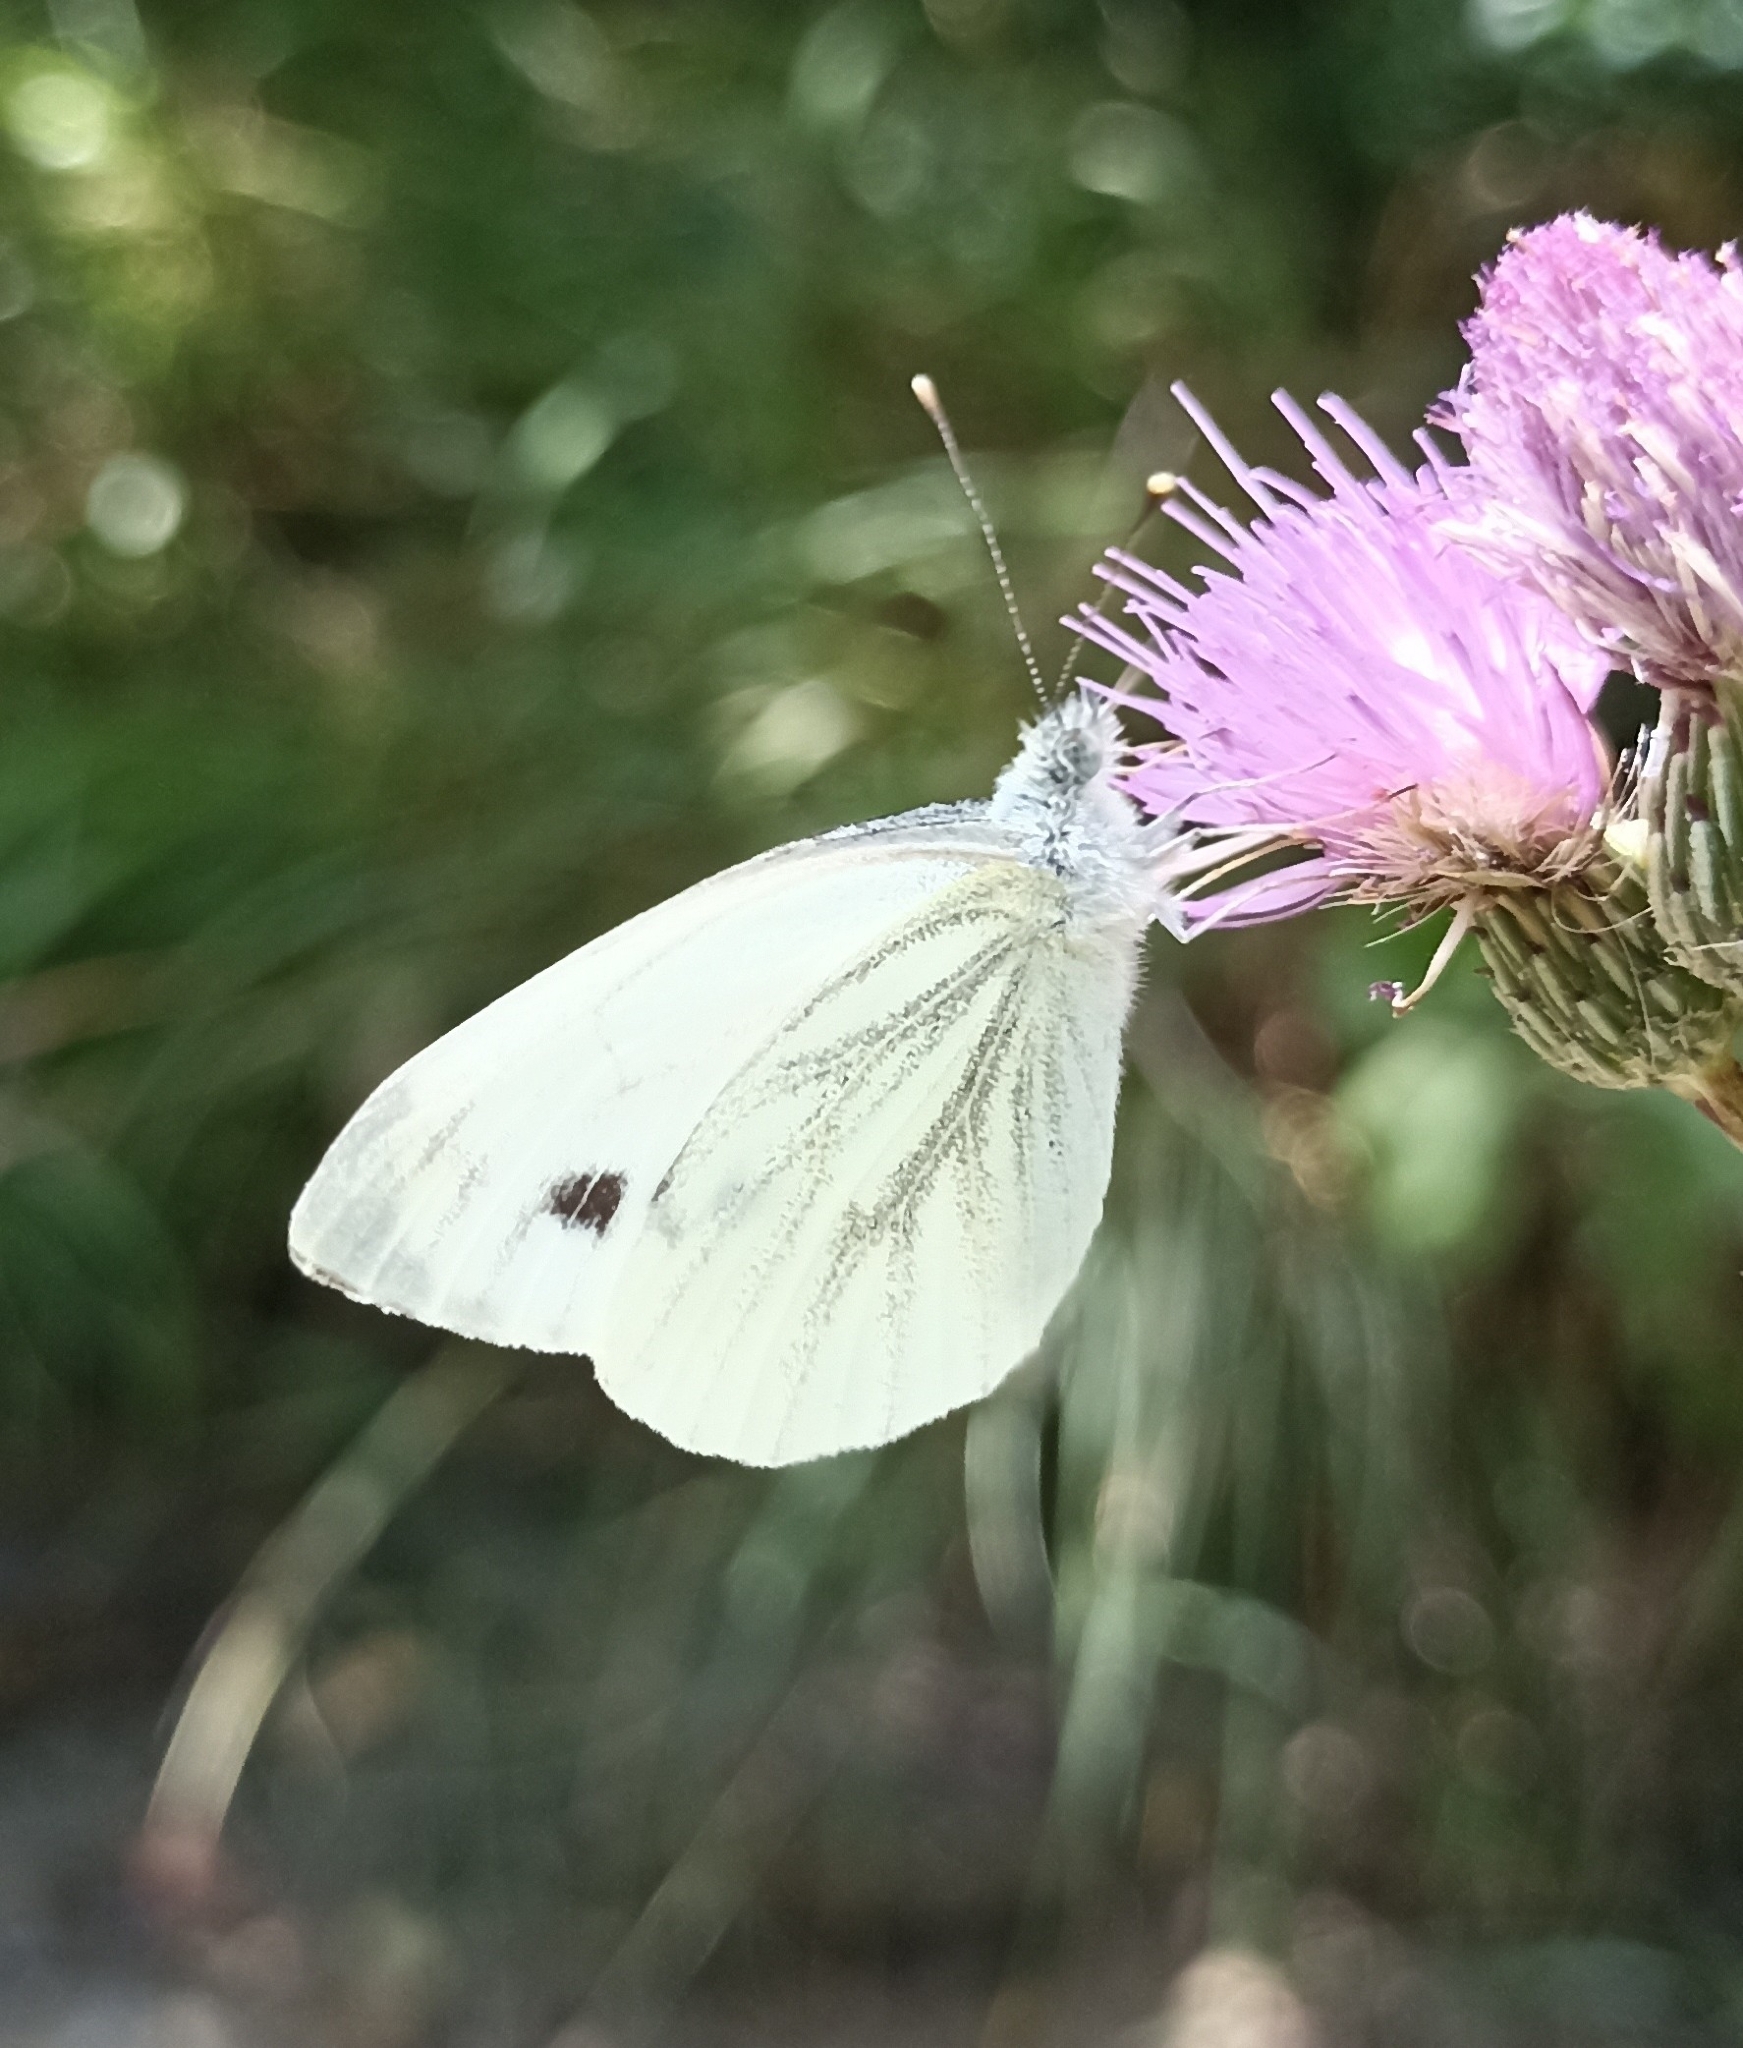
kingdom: Animalia
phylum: Arthropoda
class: Insecta
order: Lepidoptera
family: Pieridae
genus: Pieris
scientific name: Pieris napi
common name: Green-veined white
